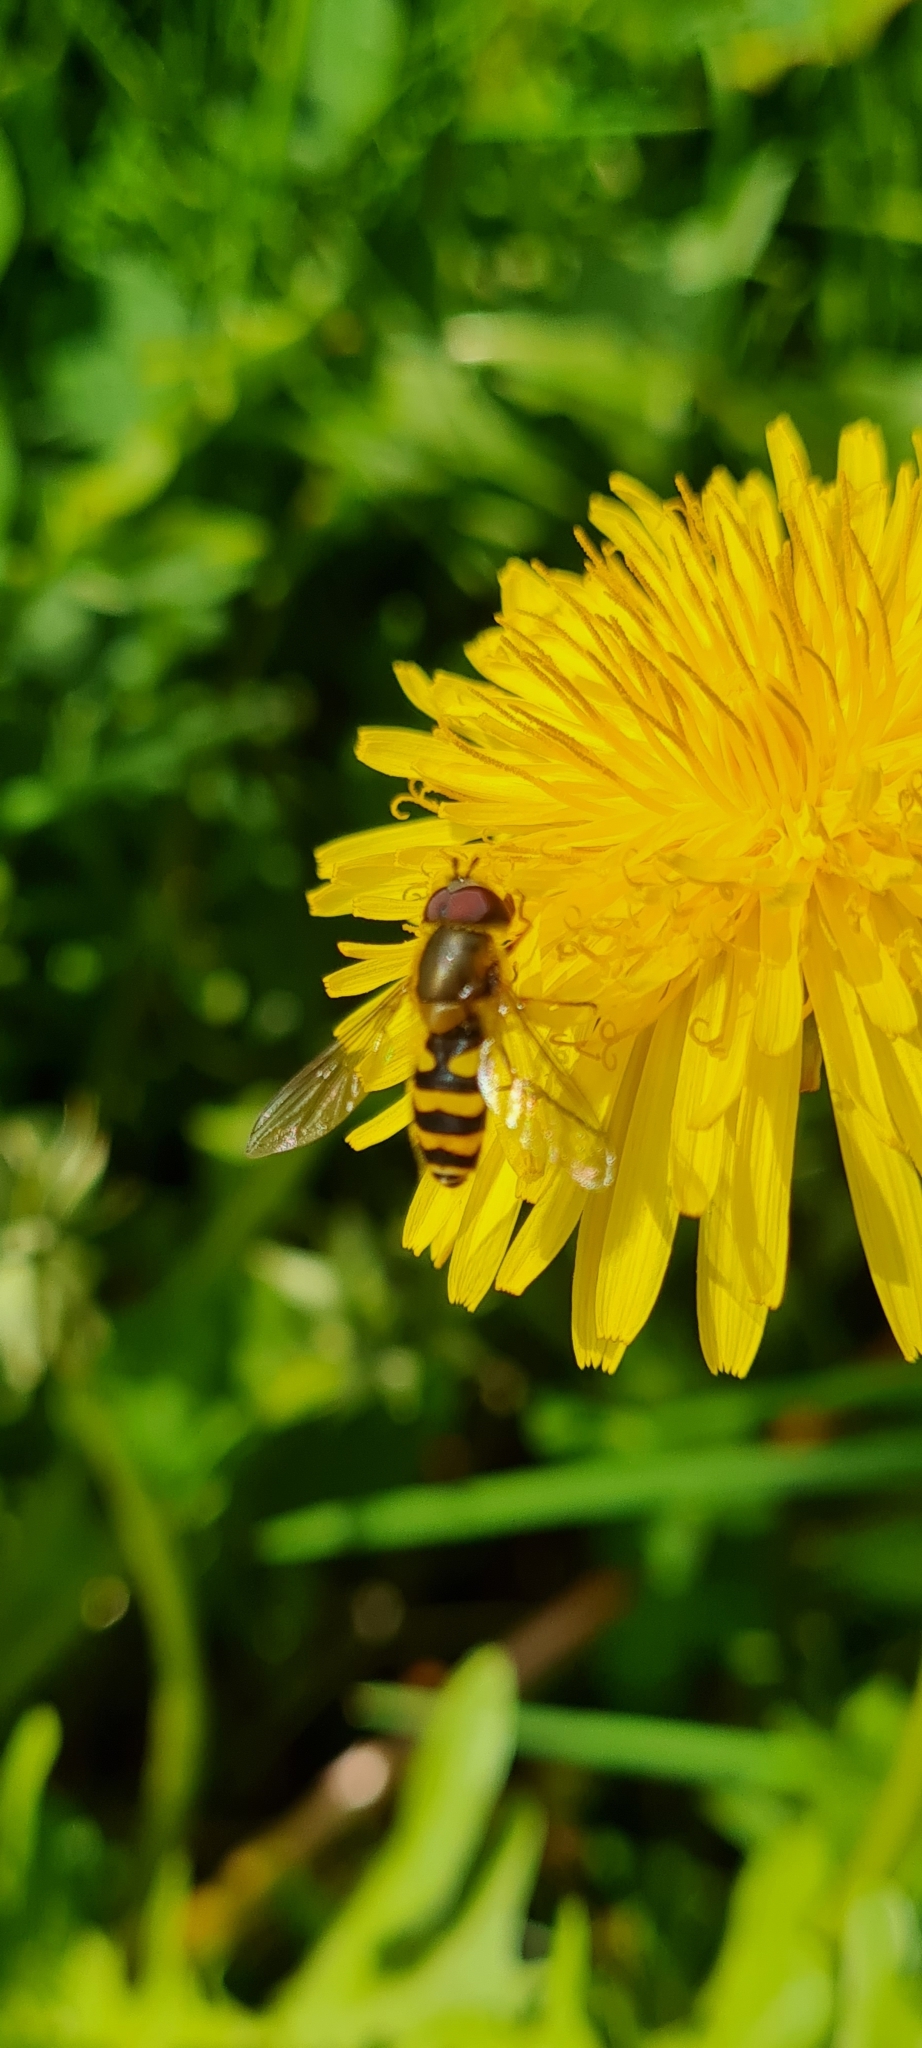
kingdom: Animalia
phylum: Arthropoda
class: Insecta
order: Diptera
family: Syrphidae
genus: Syrphus
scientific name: Syrphus
